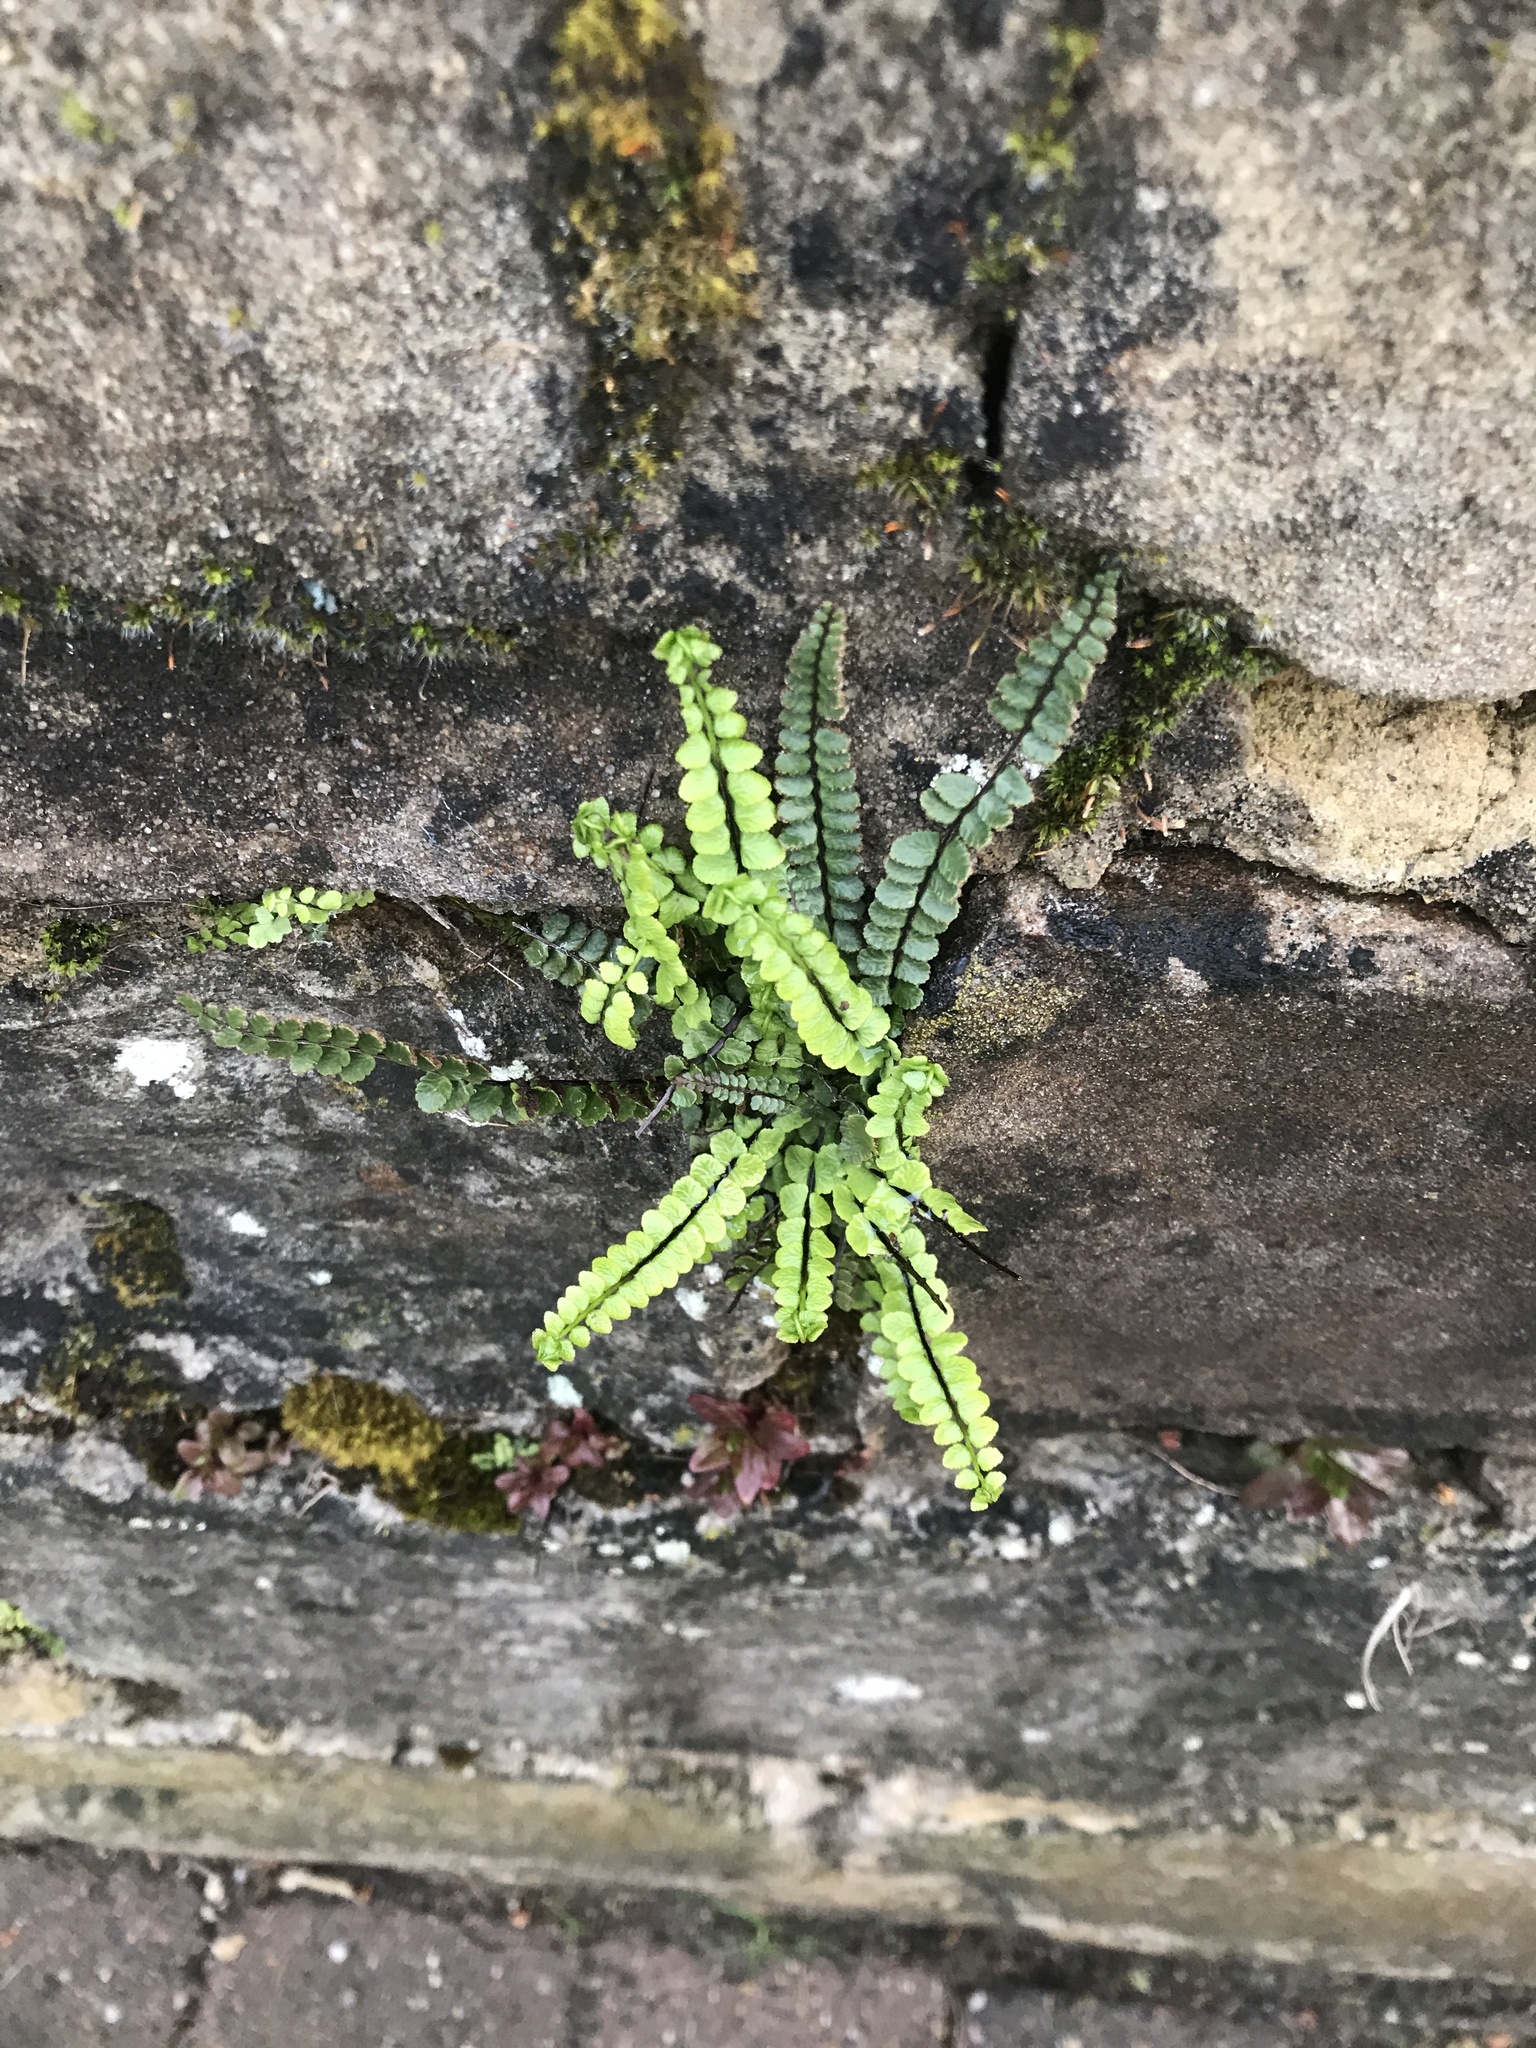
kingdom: Plantae
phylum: Tracheophyta
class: Polypodiopsida
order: Polypodiales
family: Aspleniaceae
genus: Asplenium
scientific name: Asplenium trichomanes
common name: Maidenhair spleenwort
